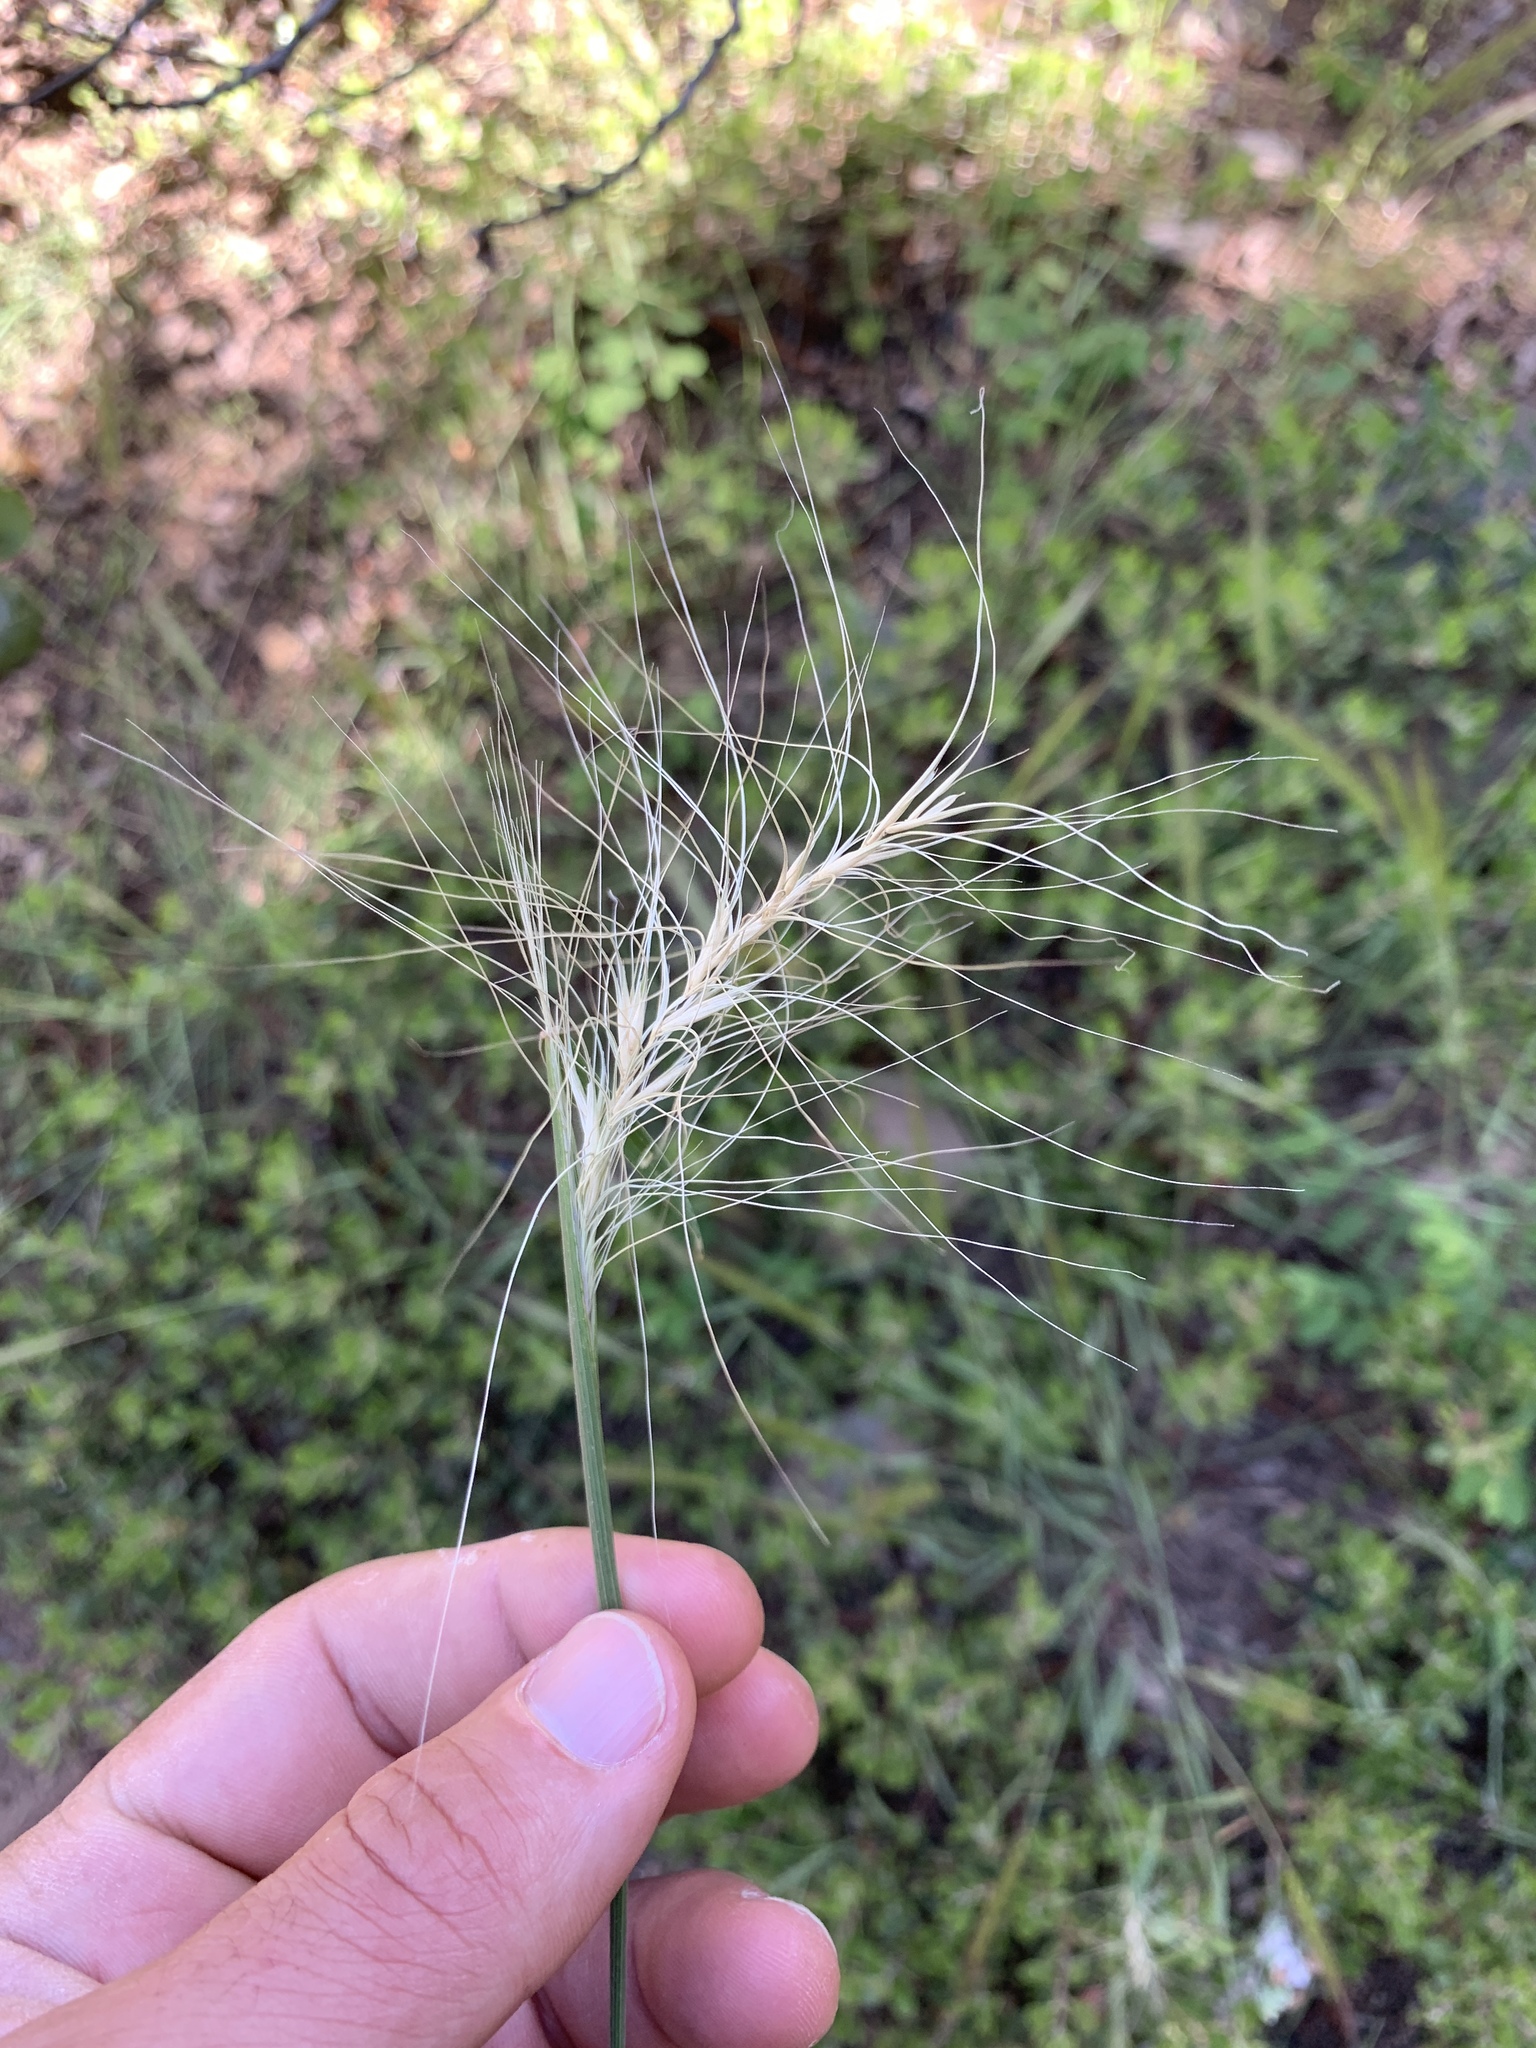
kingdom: Plantae
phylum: Tracheophyta
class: Liliopsida
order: Poales
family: Poaceae
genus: Elymus
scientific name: Elymus elymoides
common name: Bottlebrush squirreltail
